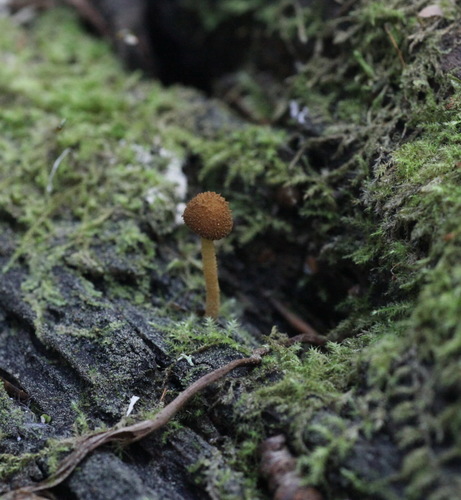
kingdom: Fungi
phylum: Basidiomycota
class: Agaricomycetes
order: Agaricales
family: Tubariaceae
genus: Phaeomarasmius
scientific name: Phaeomarasmius erinaceus
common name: Hedgehog scalycap
